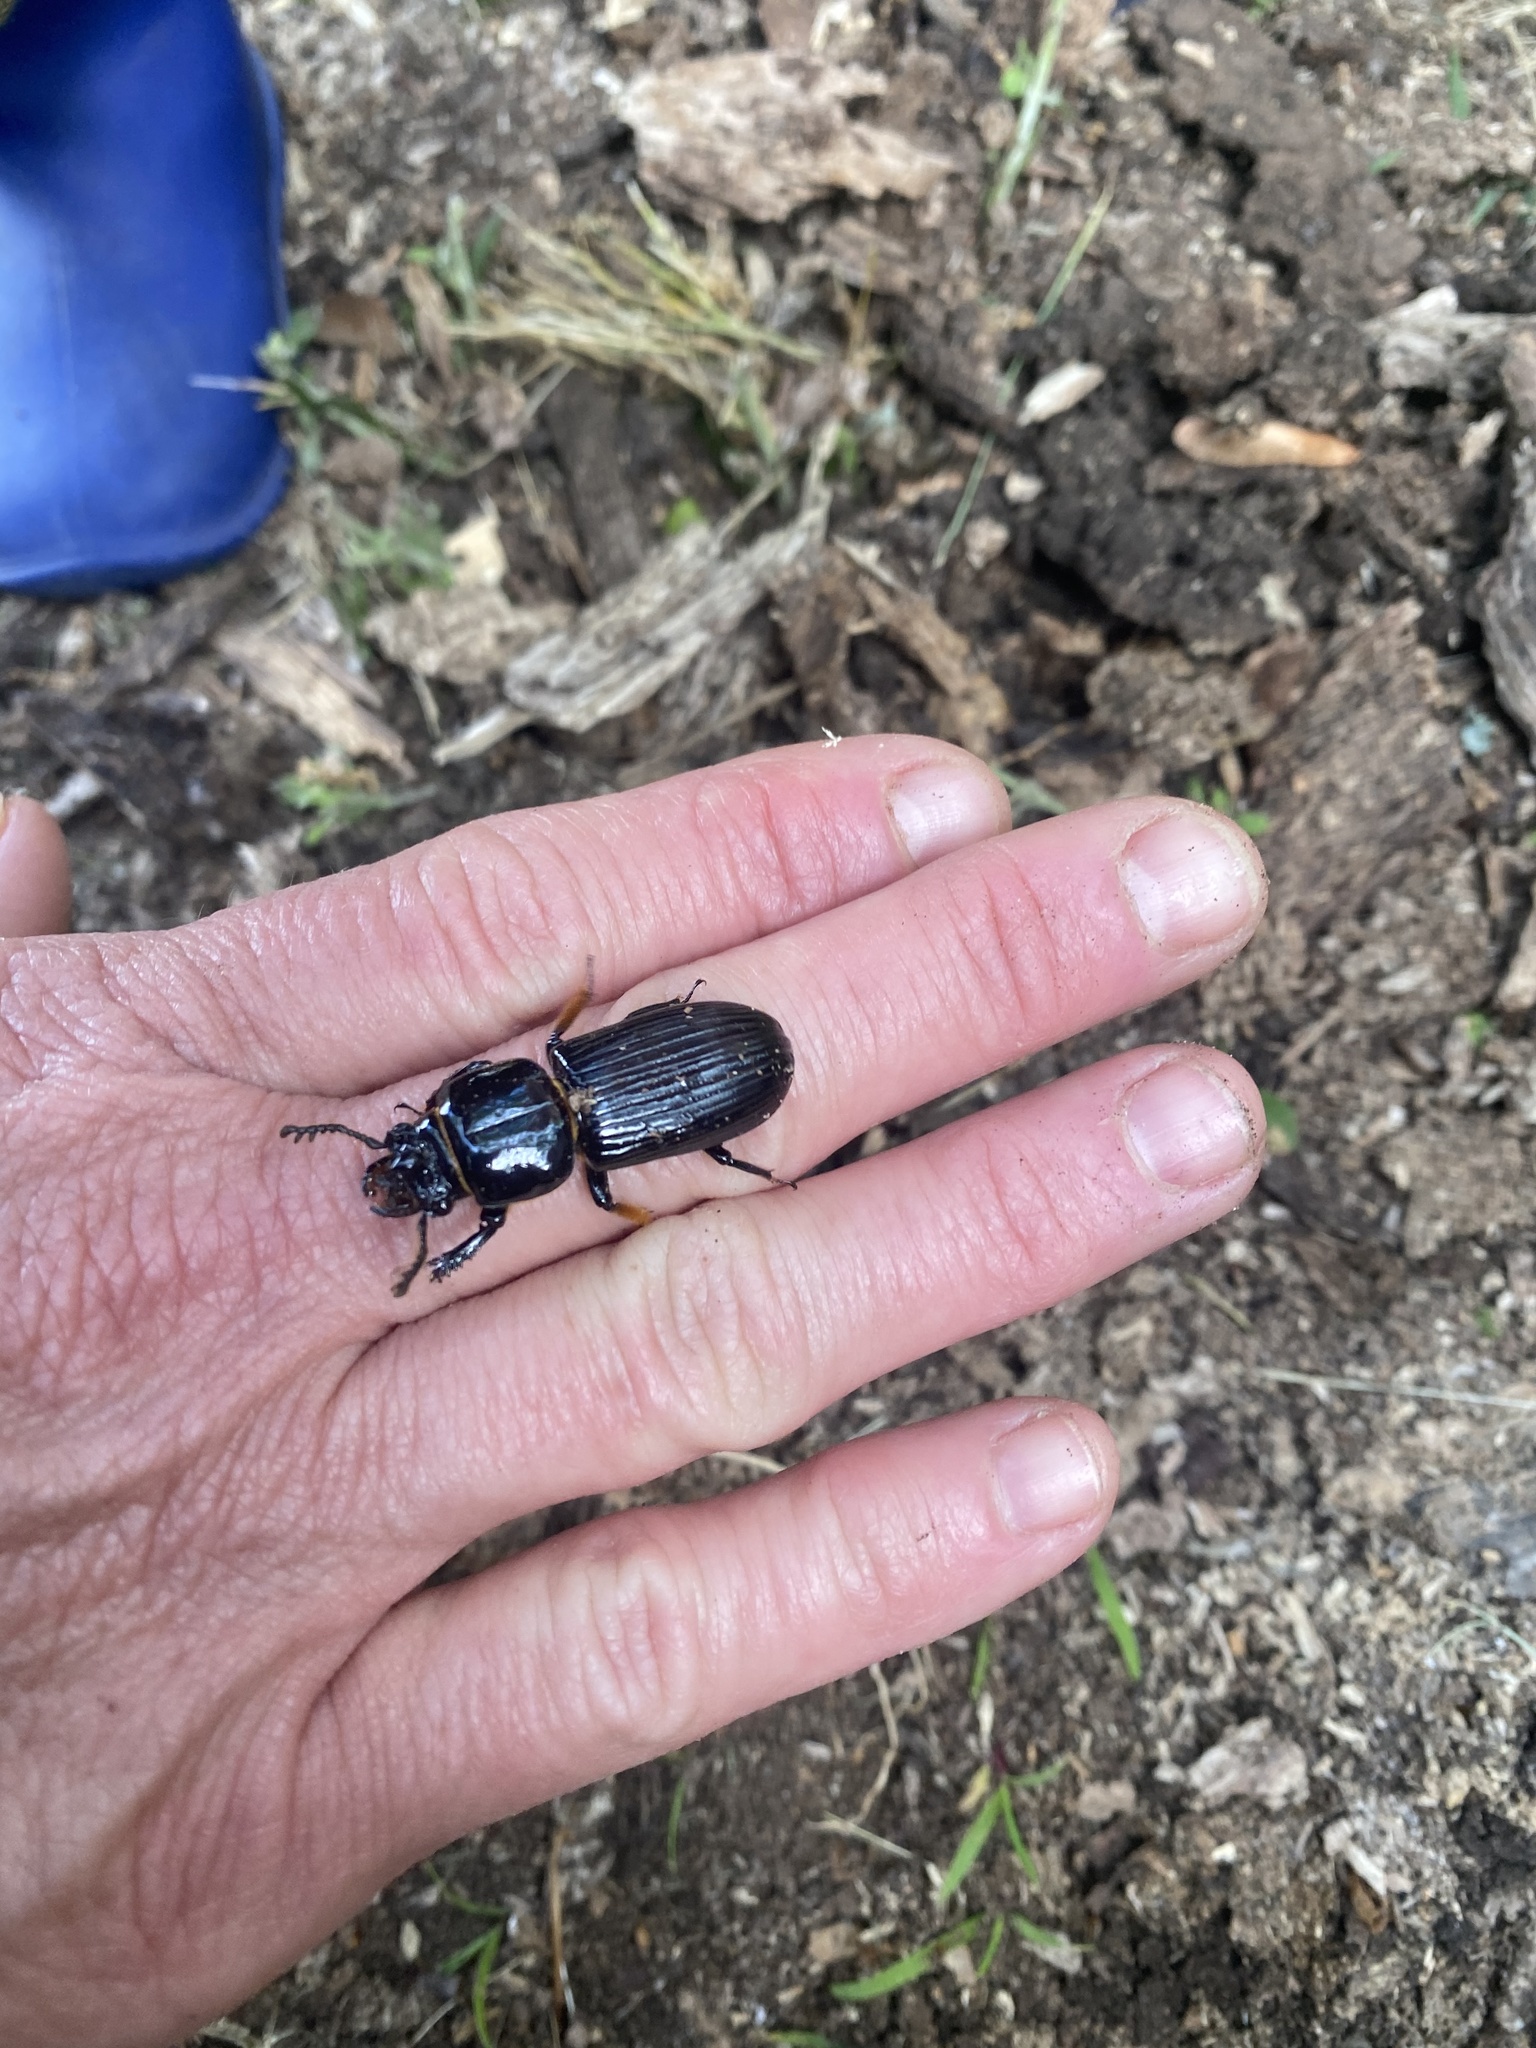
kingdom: Animalia
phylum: Arthropoda
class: Insecta
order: Coleoptera
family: Passalidae
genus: Odontotaenius
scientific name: Odontotaenius disjunctus
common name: Patent leather beetle
